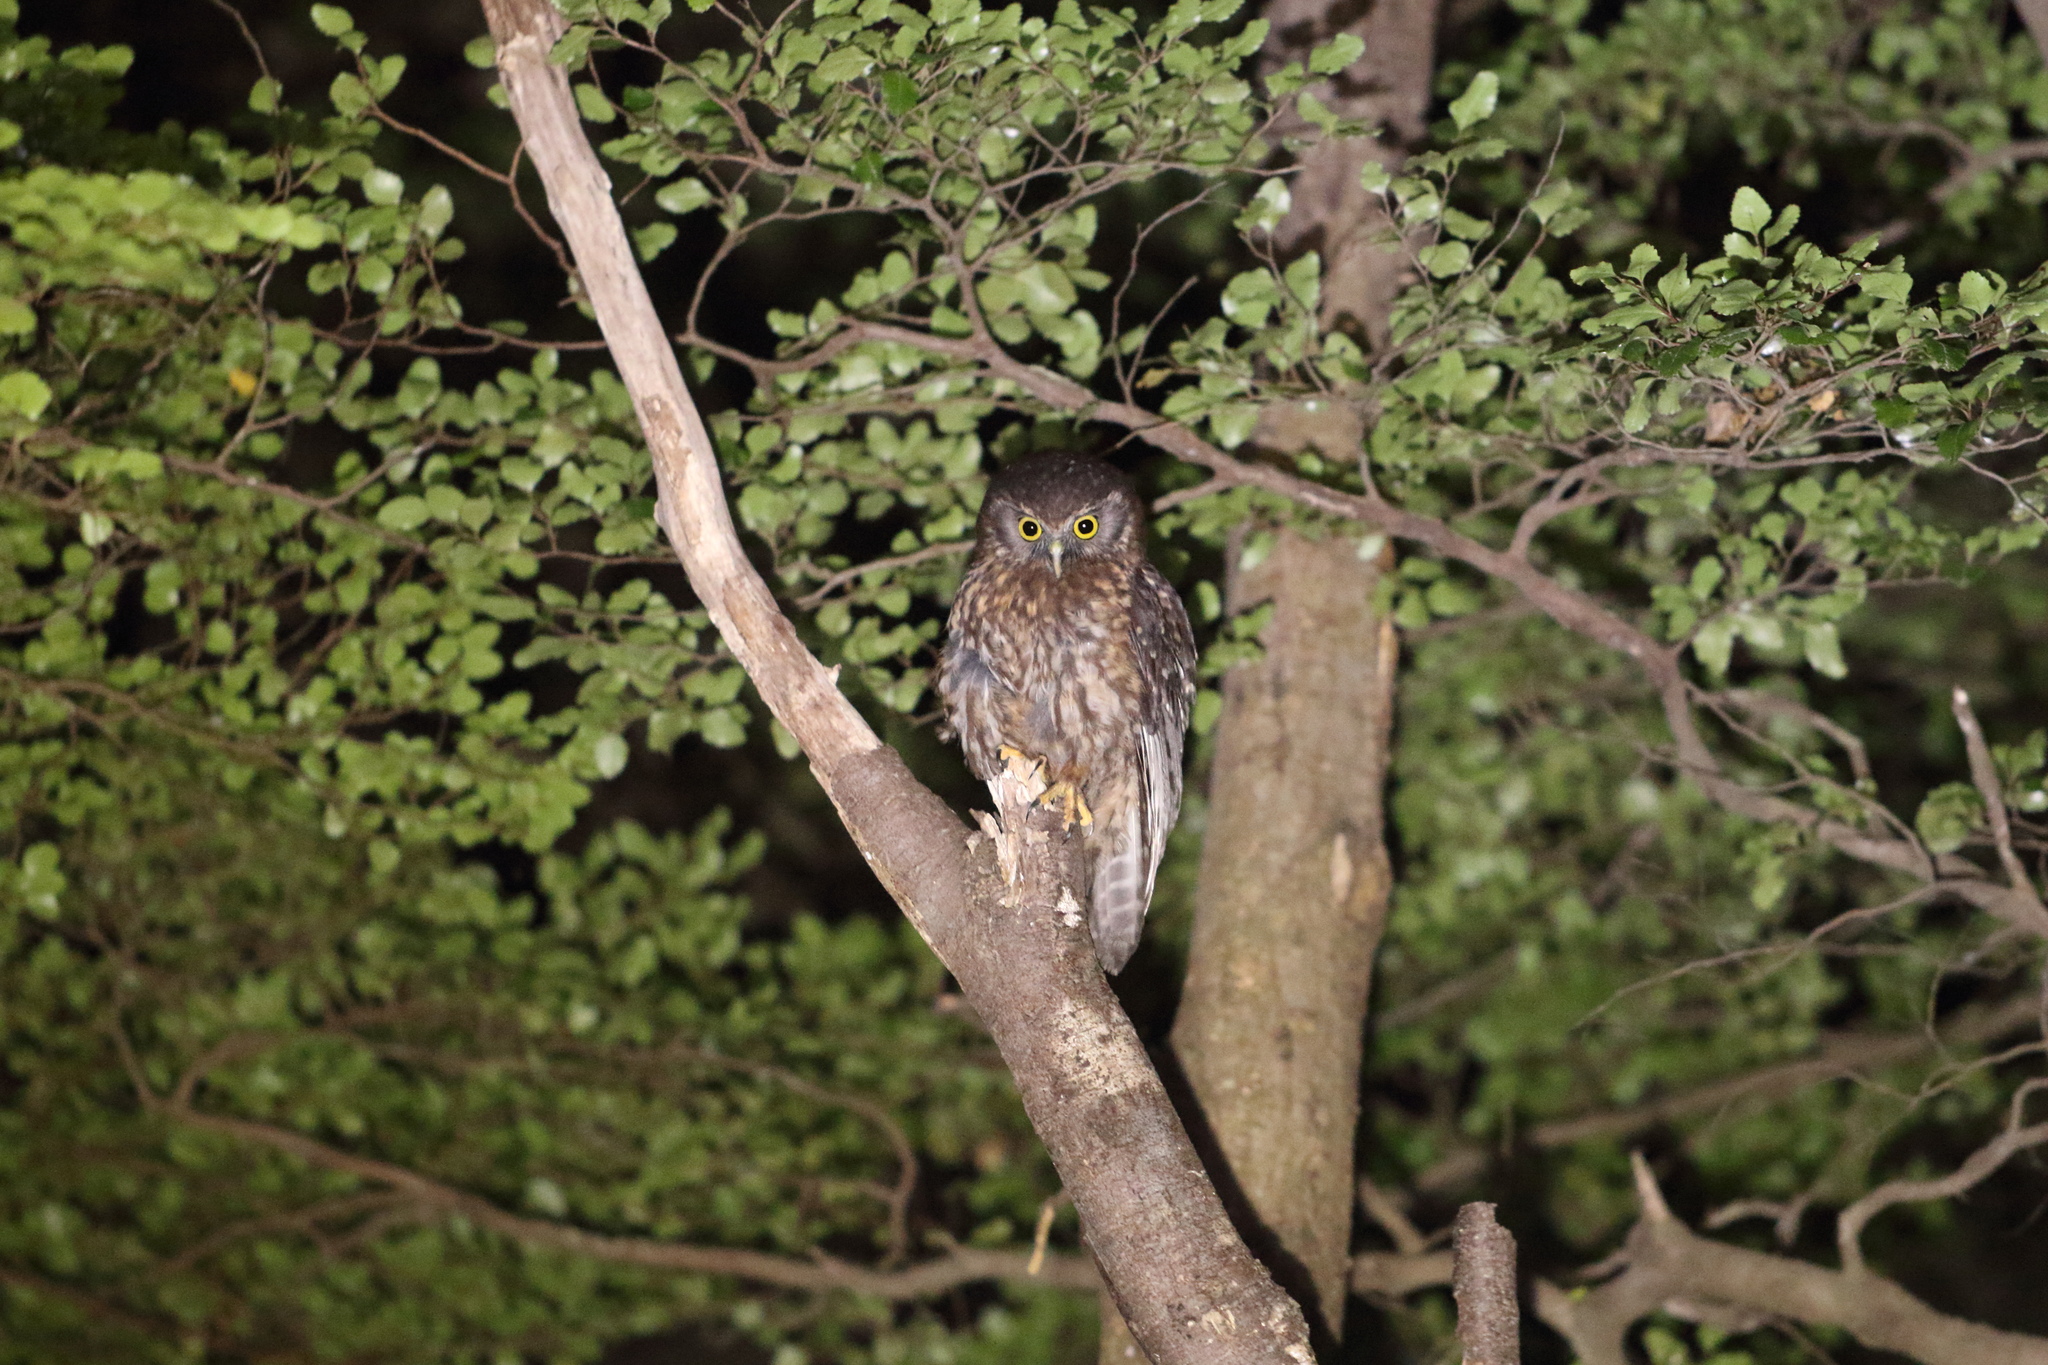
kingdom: Animalia
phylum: Chordata
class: Aves
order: Strigiformes
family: Strigidae
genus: Ninox
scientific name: Ninox novaeseelandiae
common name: Morepork
